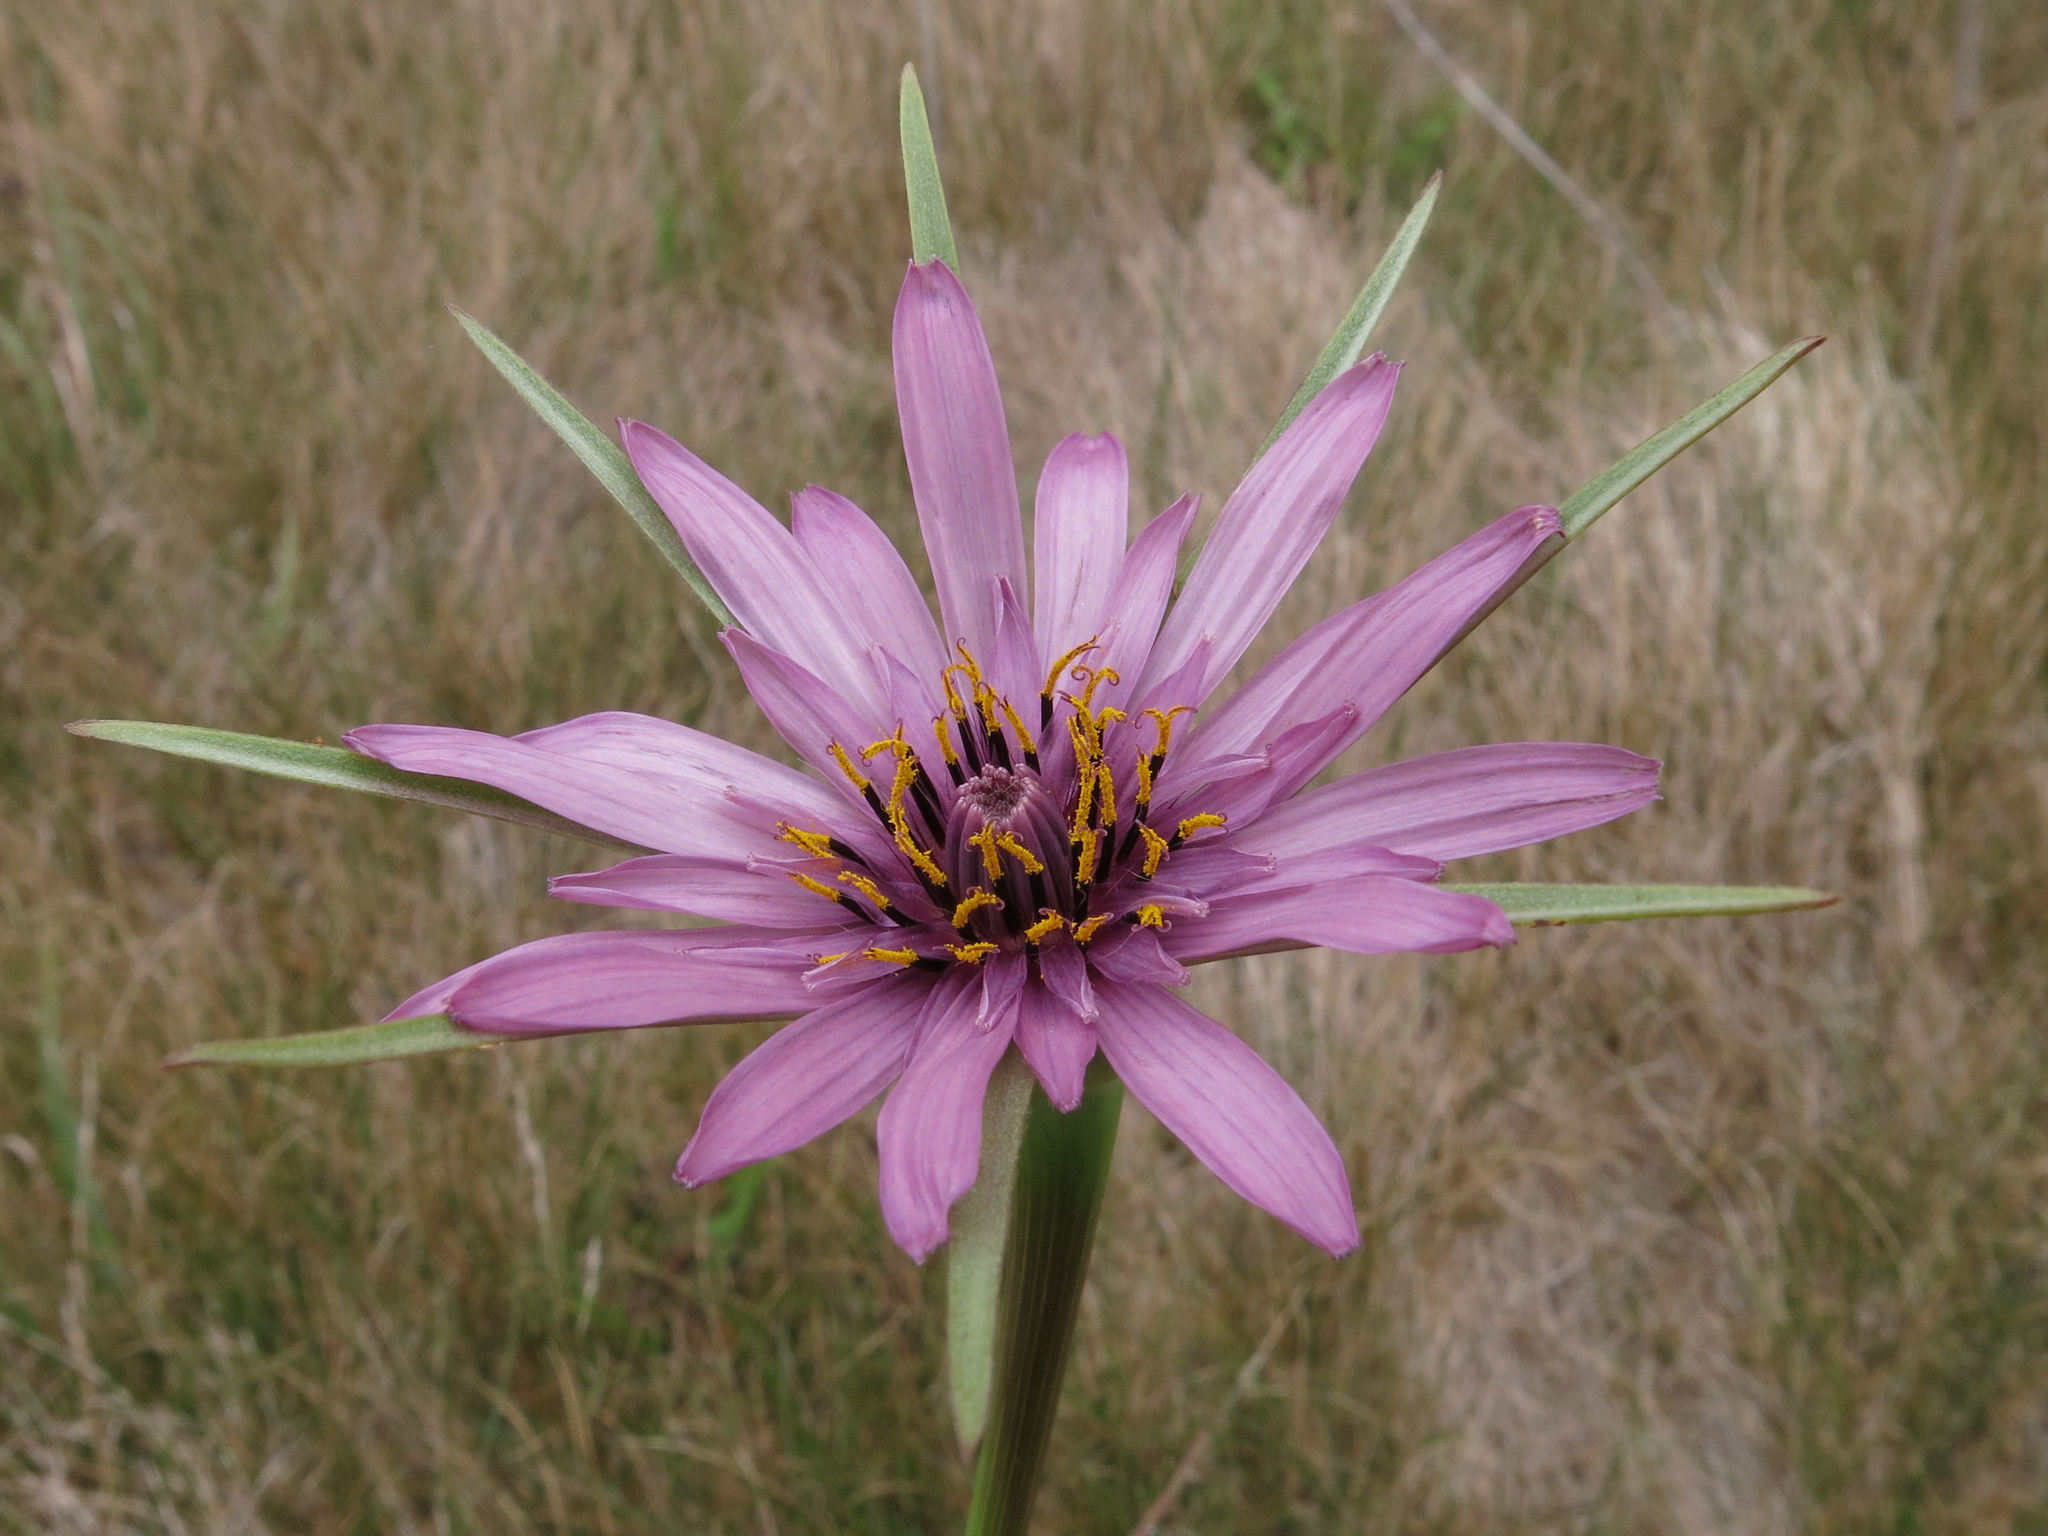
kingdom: Plantae
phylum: Tracheophyta
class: Magnoliopsida
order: Asterales
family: Asteraceae
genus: Tragopogon
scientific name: Tragopogon porrifolius
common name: Salsify
